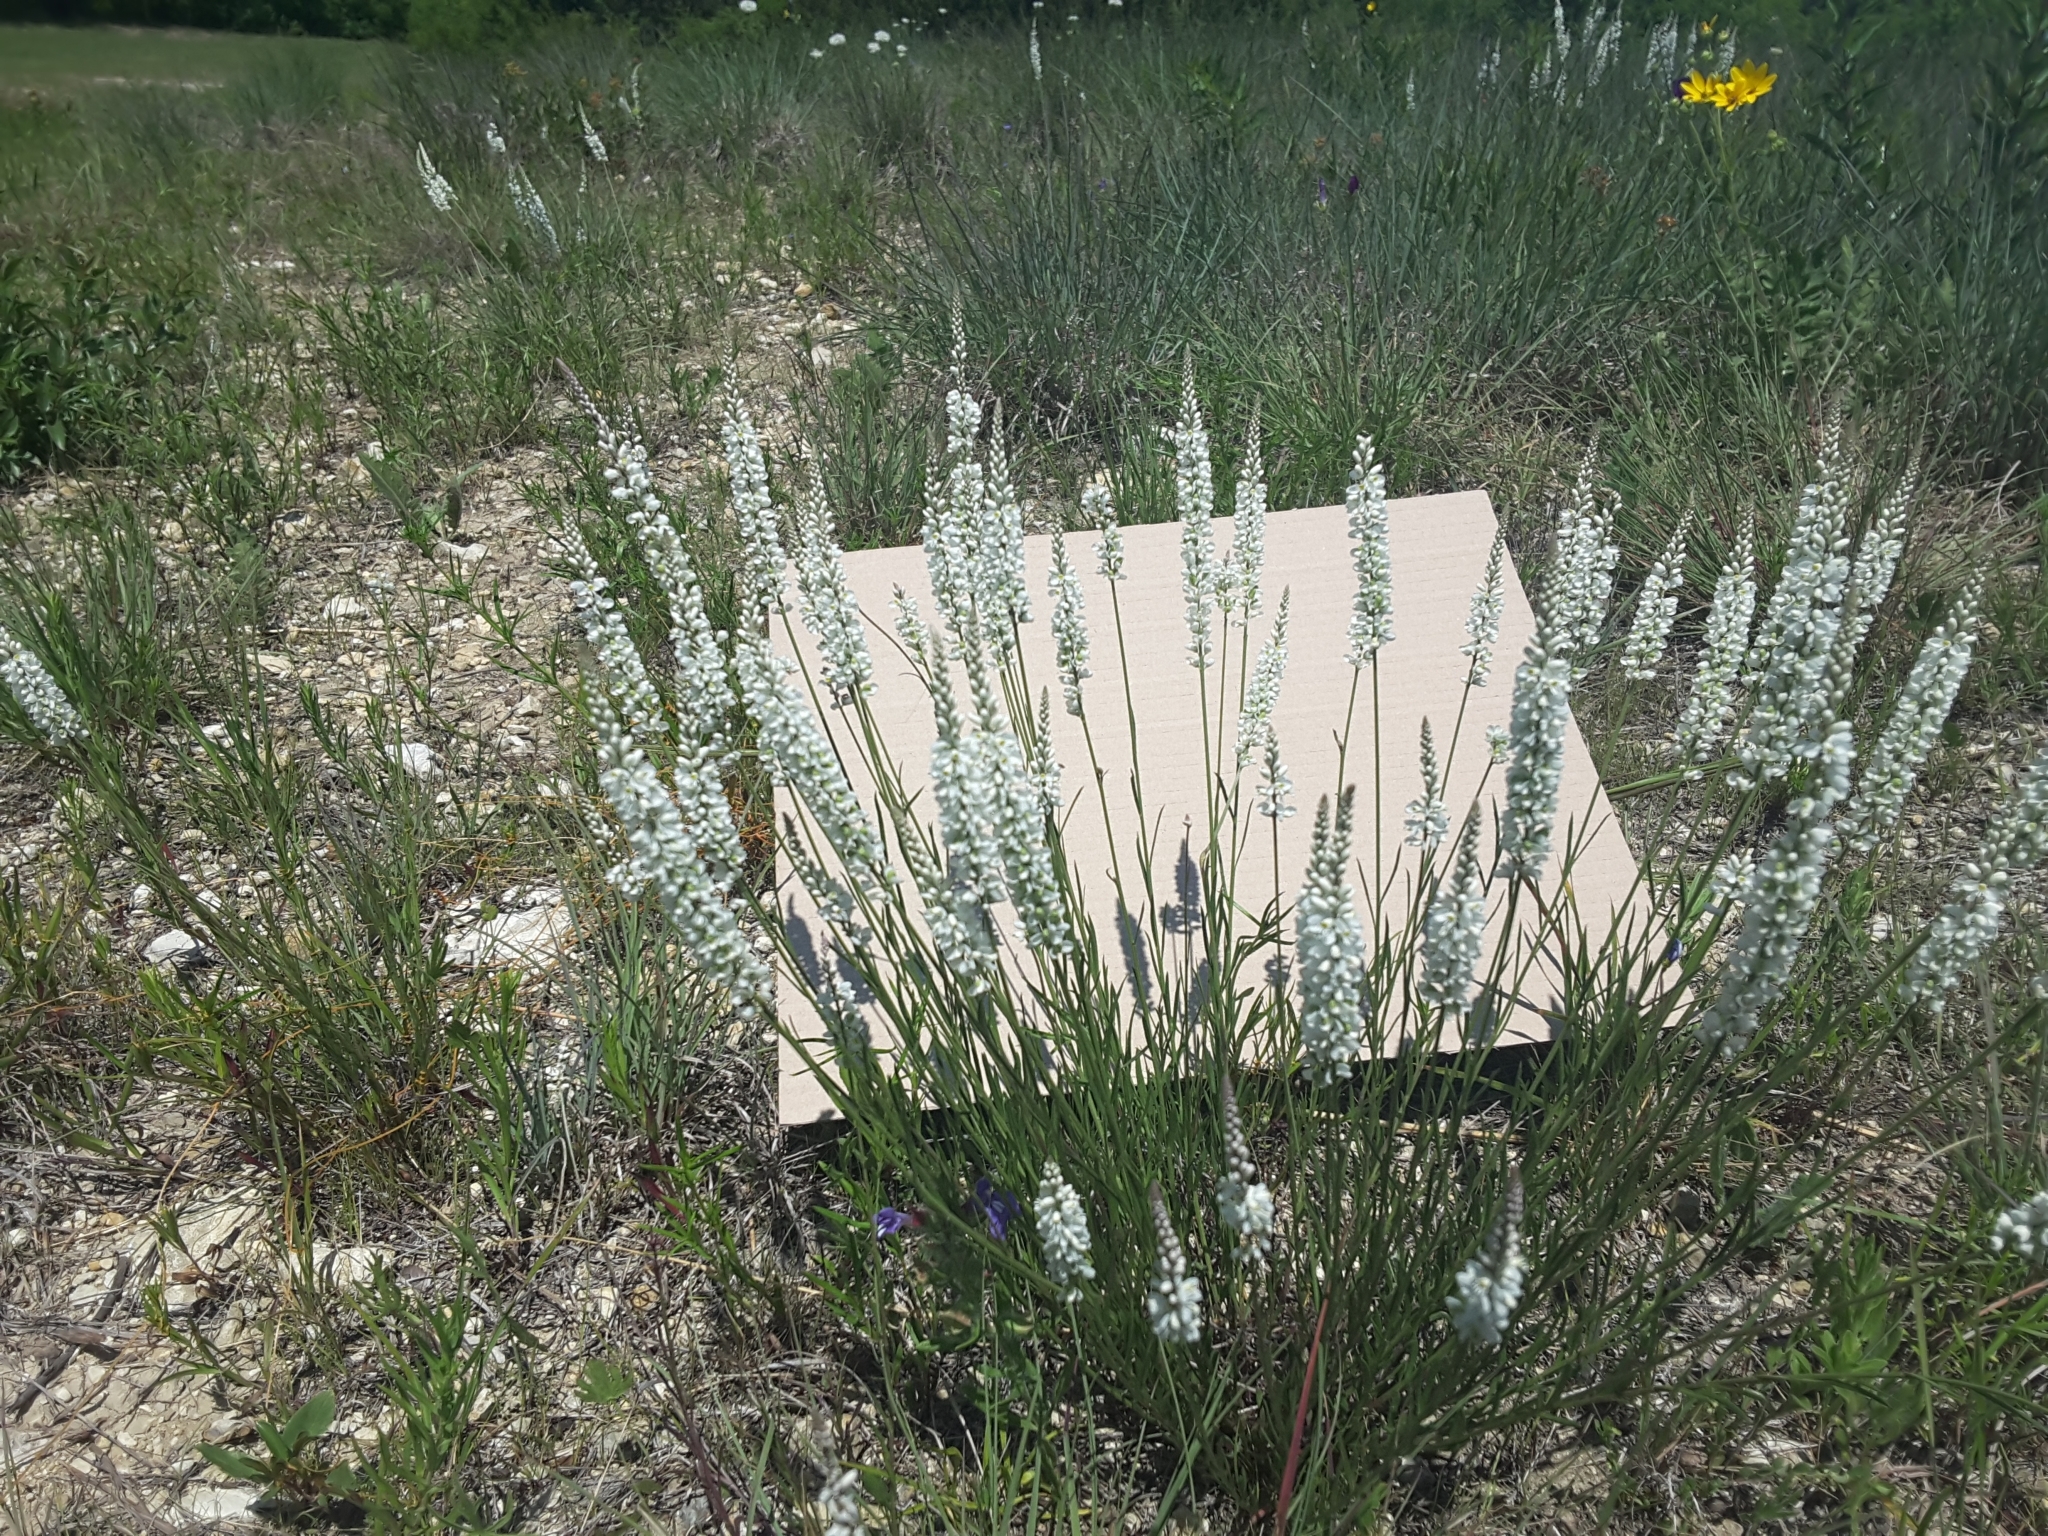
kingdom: Plantae
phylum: Tracheophyta
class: Magnoliopsida
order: Fabales
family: Polygalaceae
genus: Polygala
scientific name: Polygala alba
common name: White milkwort
